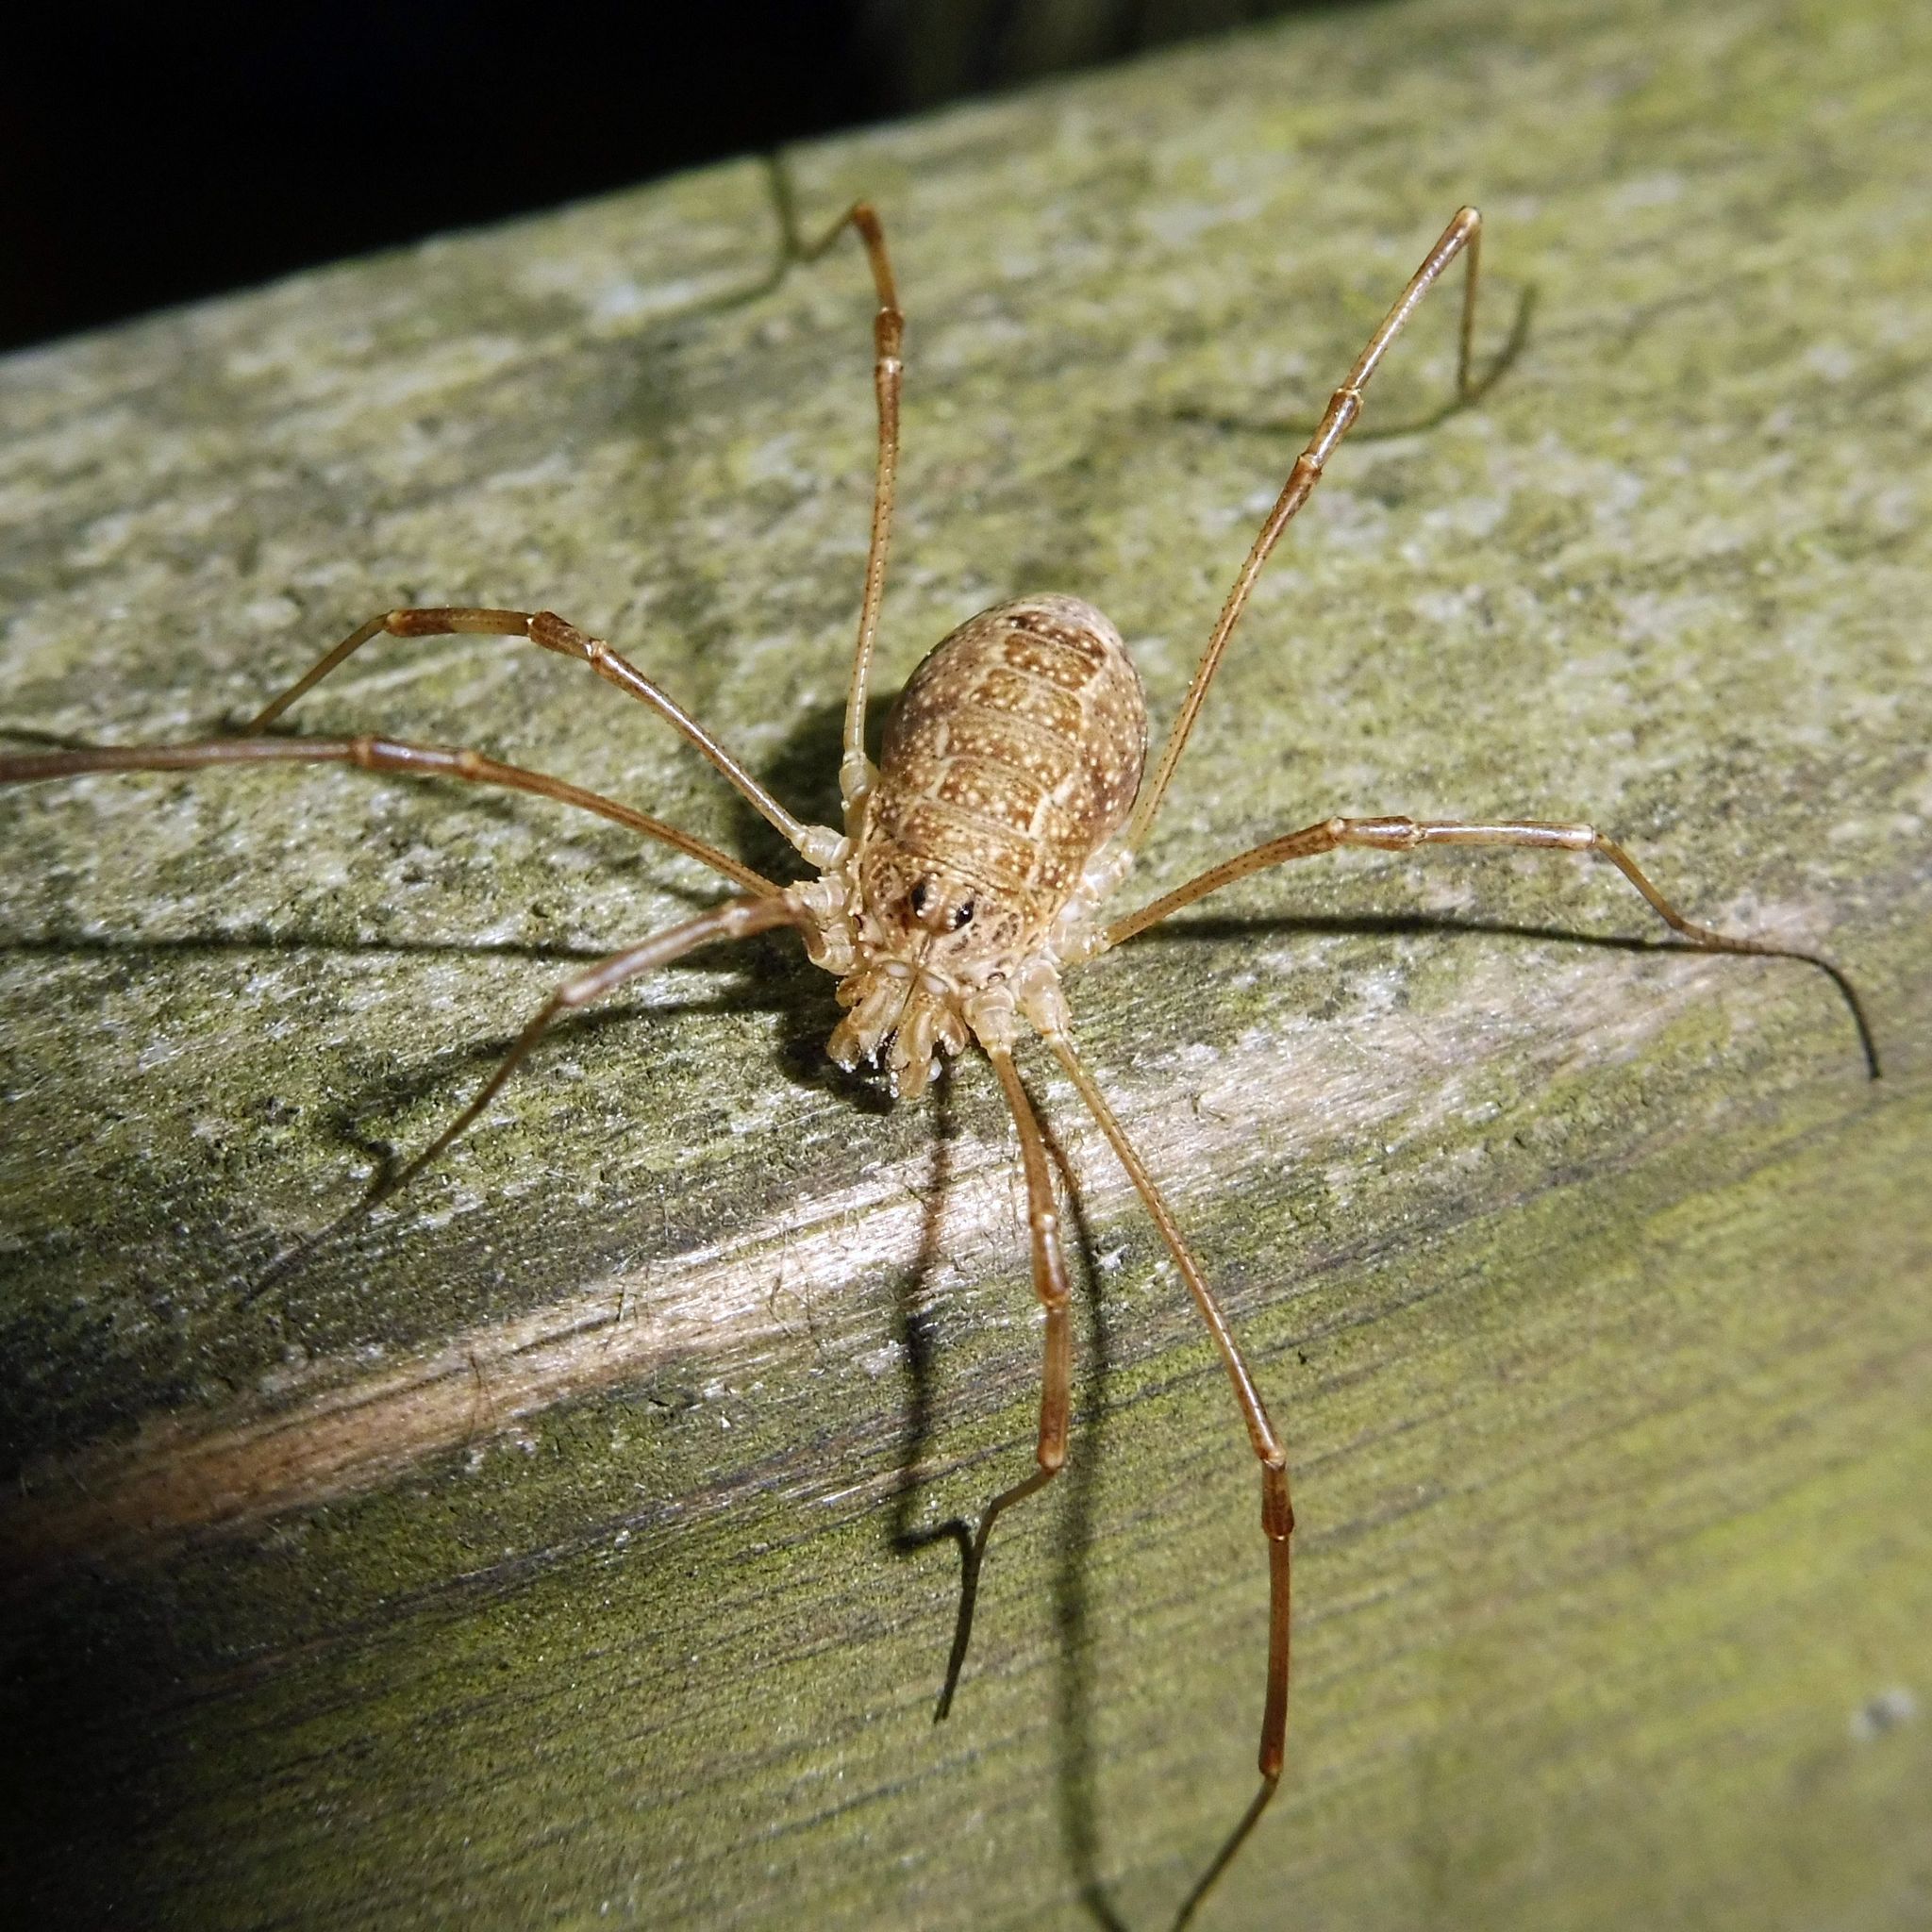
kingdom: Animalia
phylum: Arthropoda
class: Arachnida
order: Opiliones
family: Phalangiidae
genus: Rilaena
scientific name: Rilaena triangularis
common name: Spring harvestman
